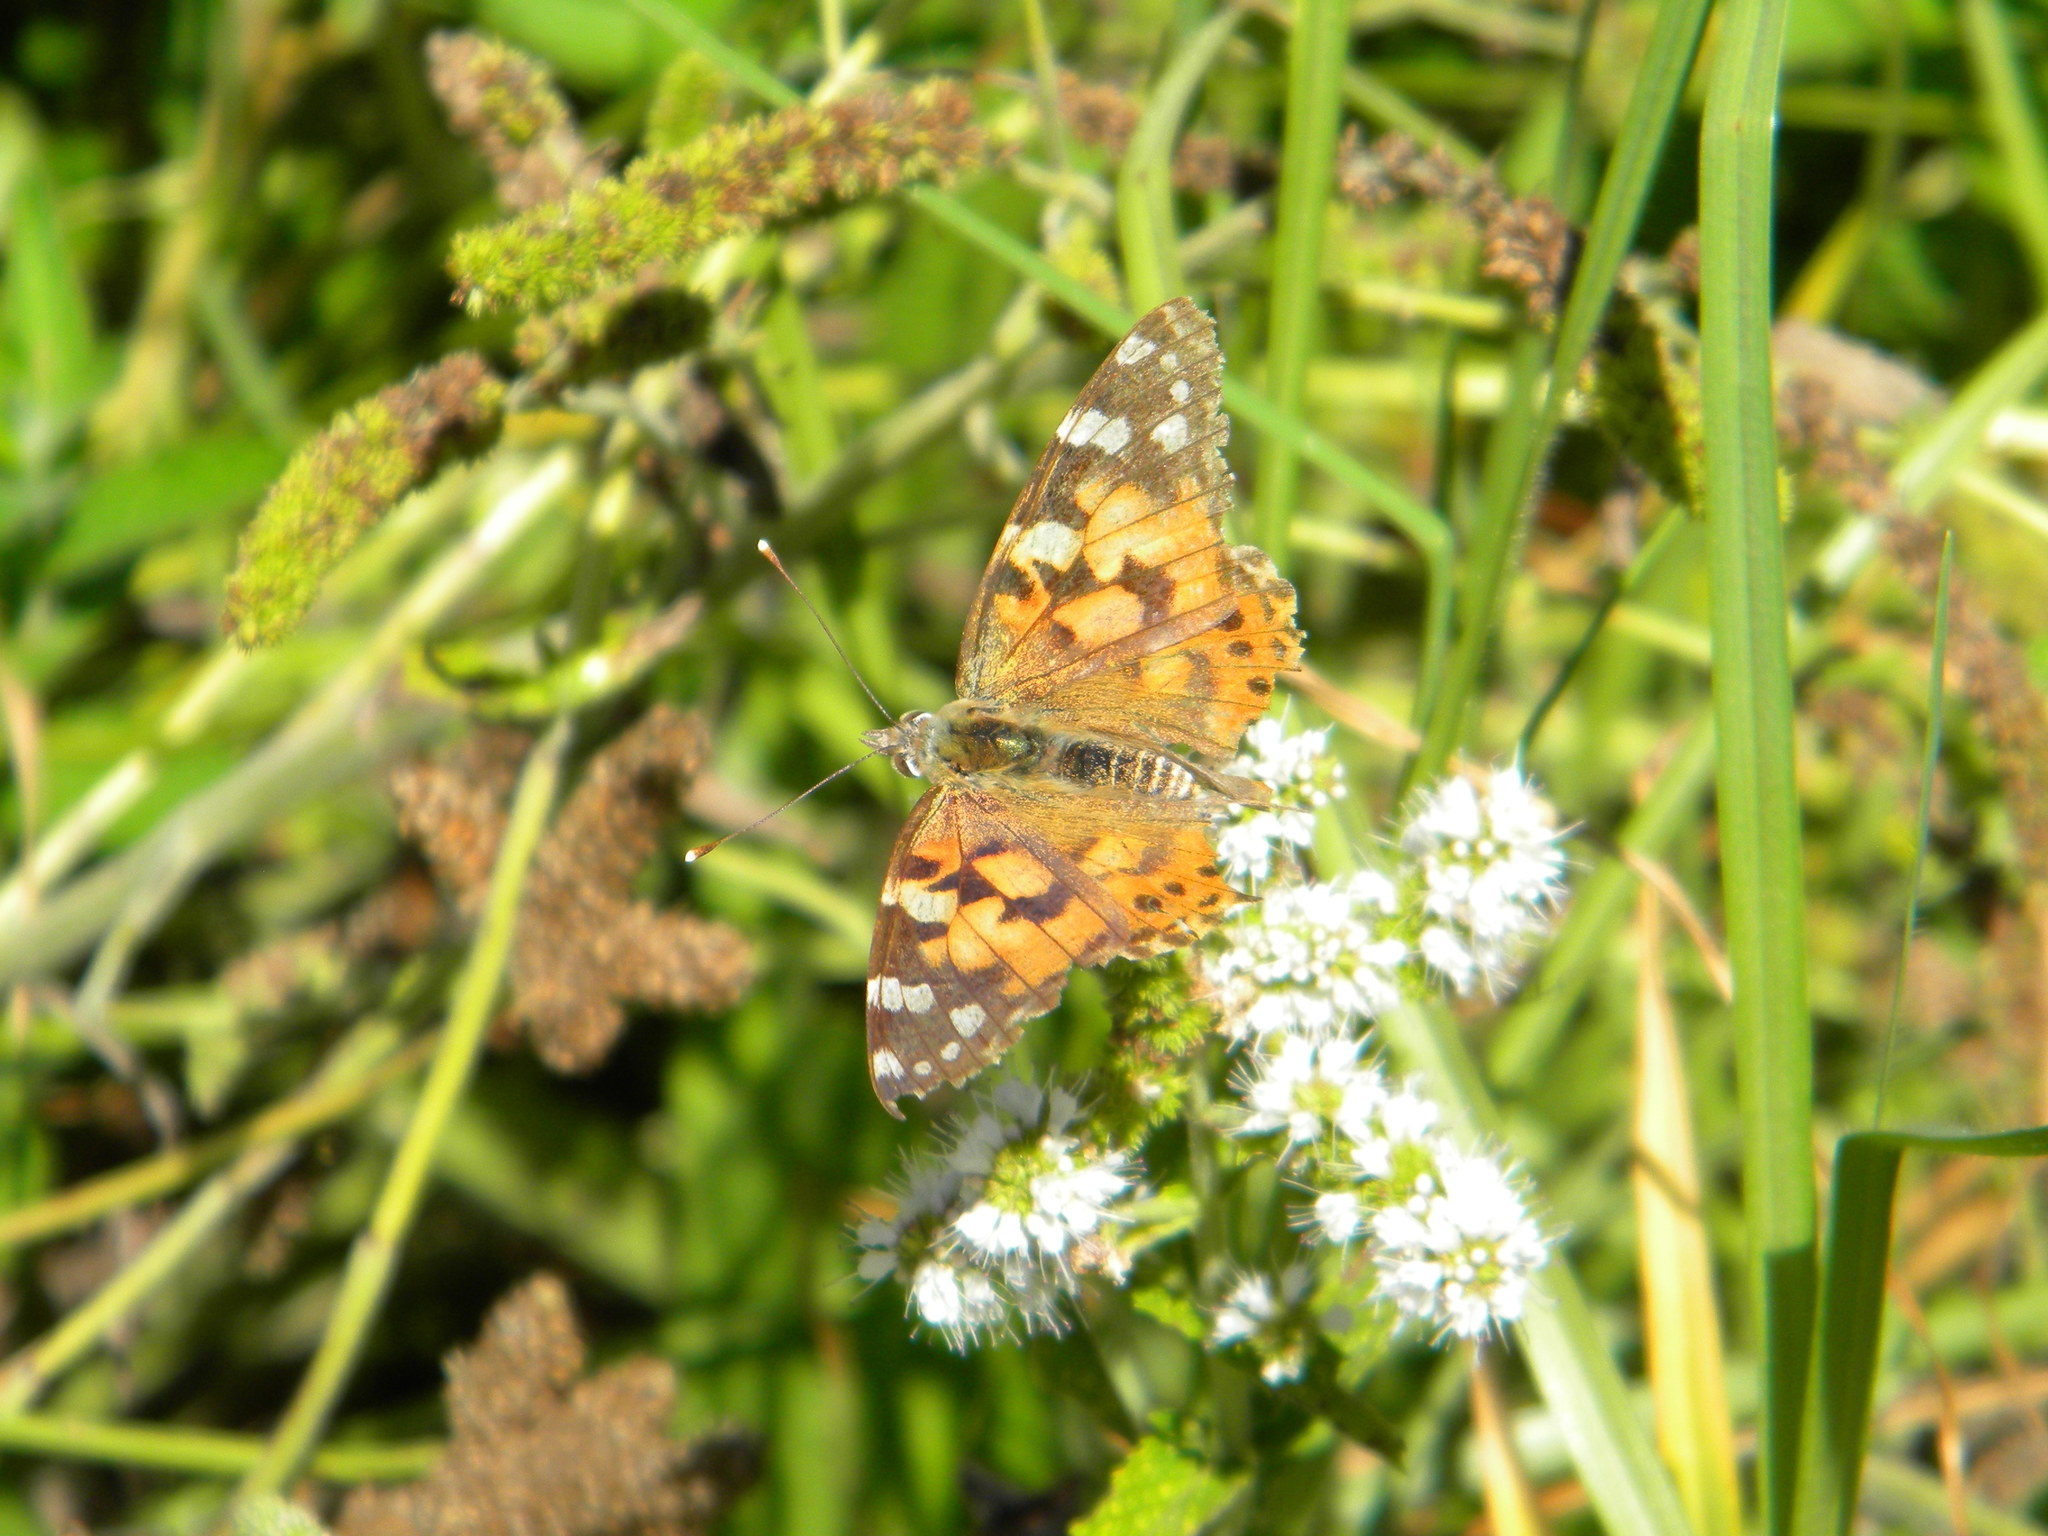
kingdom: Animalia
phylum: Arthropoda
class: Insecta
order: Lepidoptera
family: Nymphalidae
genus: Vanessa
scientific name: Vanessa cardui
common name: Painted lady
